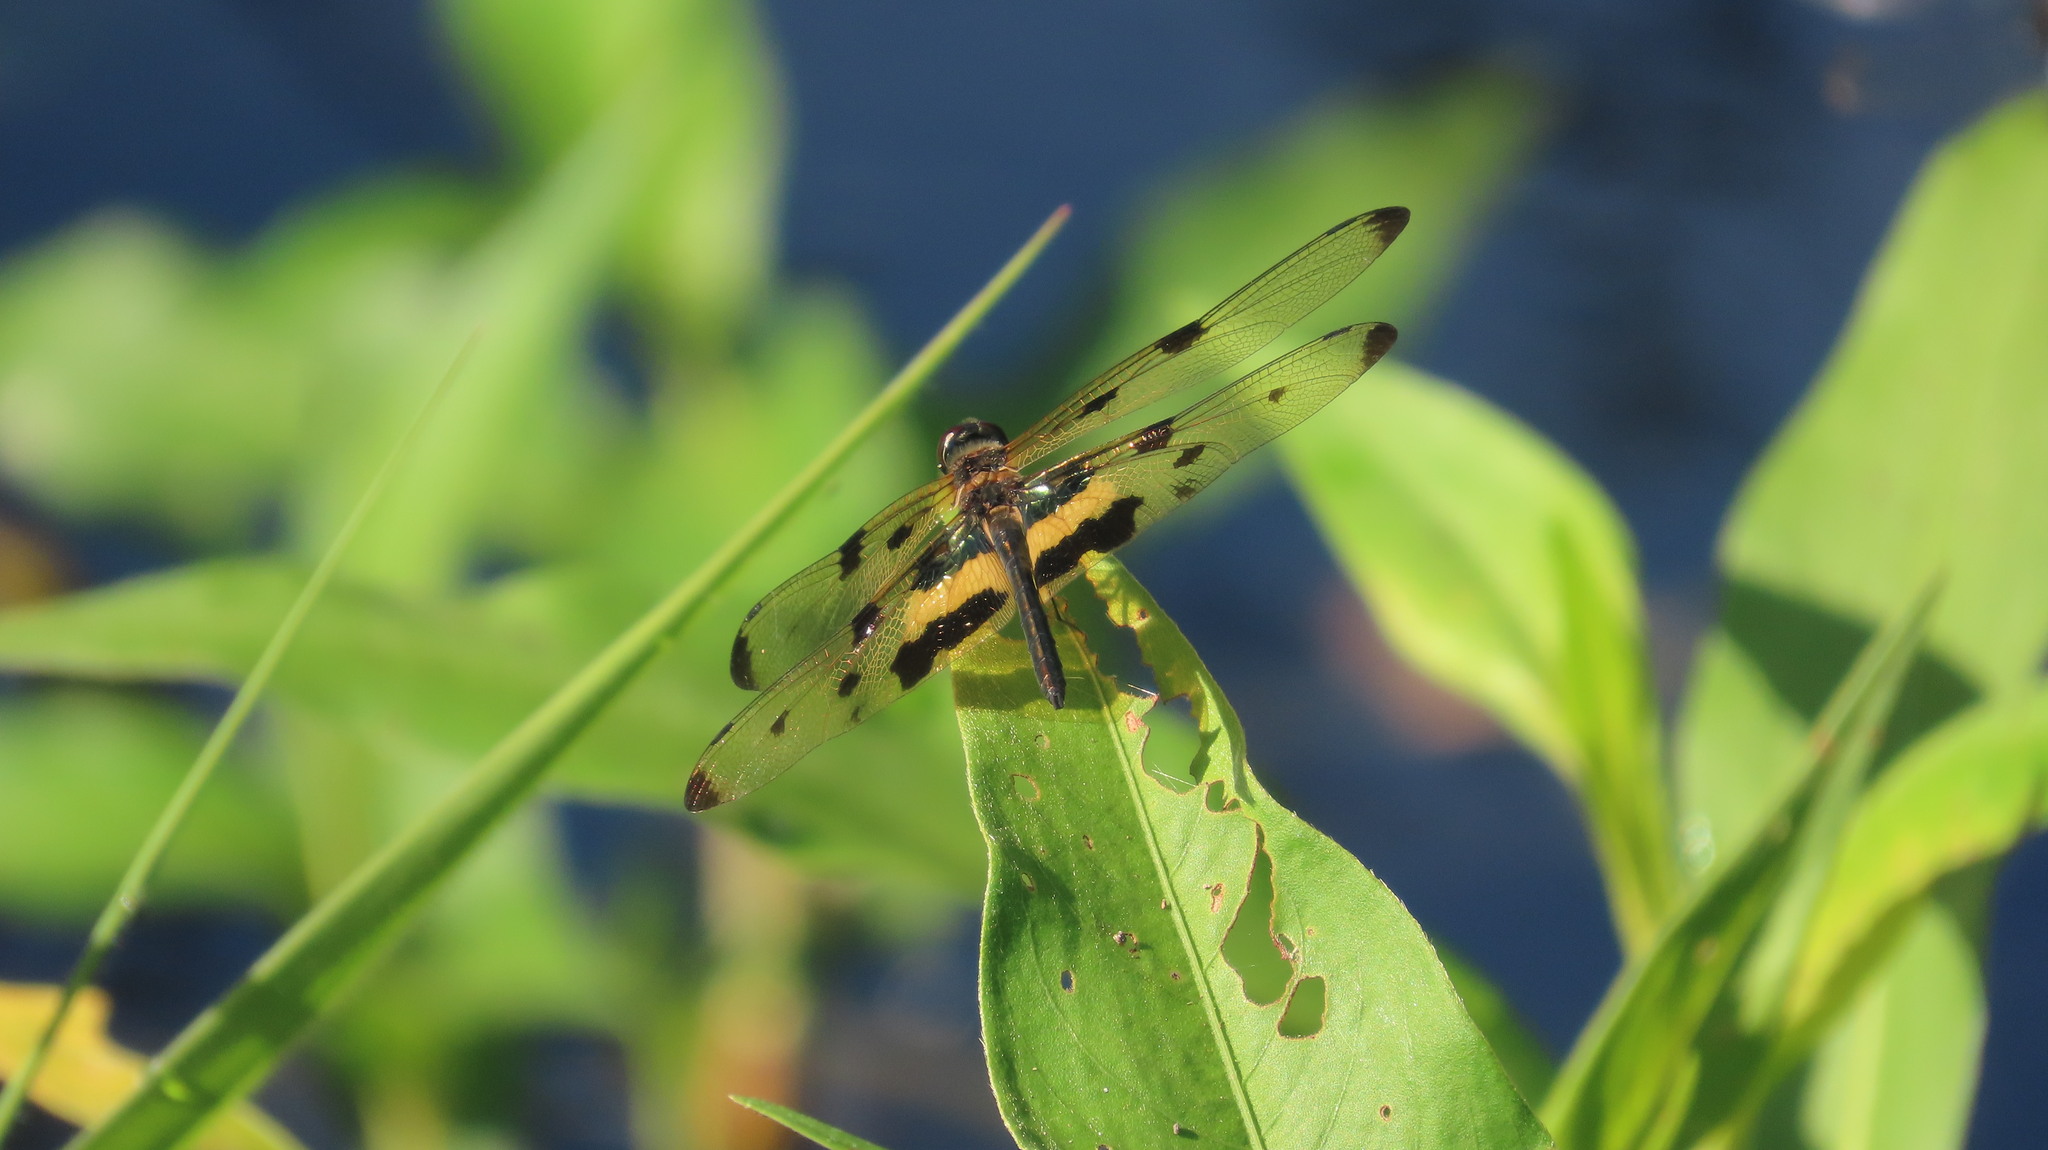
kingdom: Animalia
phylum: Arthropoda
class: Insecta
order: Odonata
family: Libellulidae
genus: Rhyothemis
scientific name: Rhyothemis variegata
